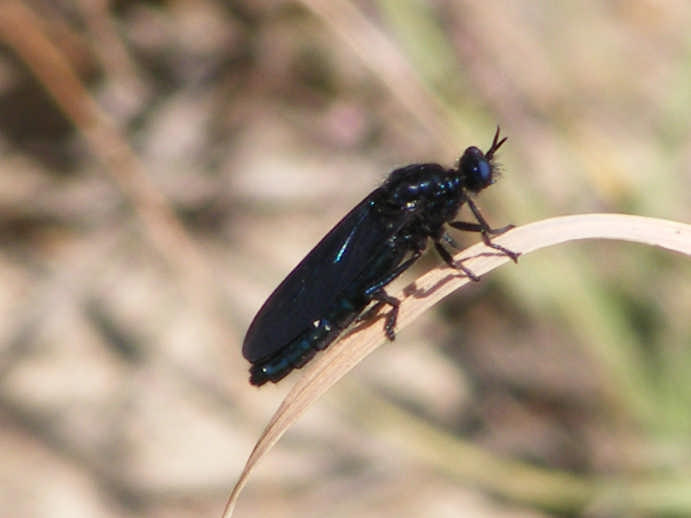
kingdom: Animalia
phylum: Arthropoda
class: Insecta
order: Diptera
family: Asilidae
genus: Teratopomyia
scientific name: Teratopomyia cyanea
